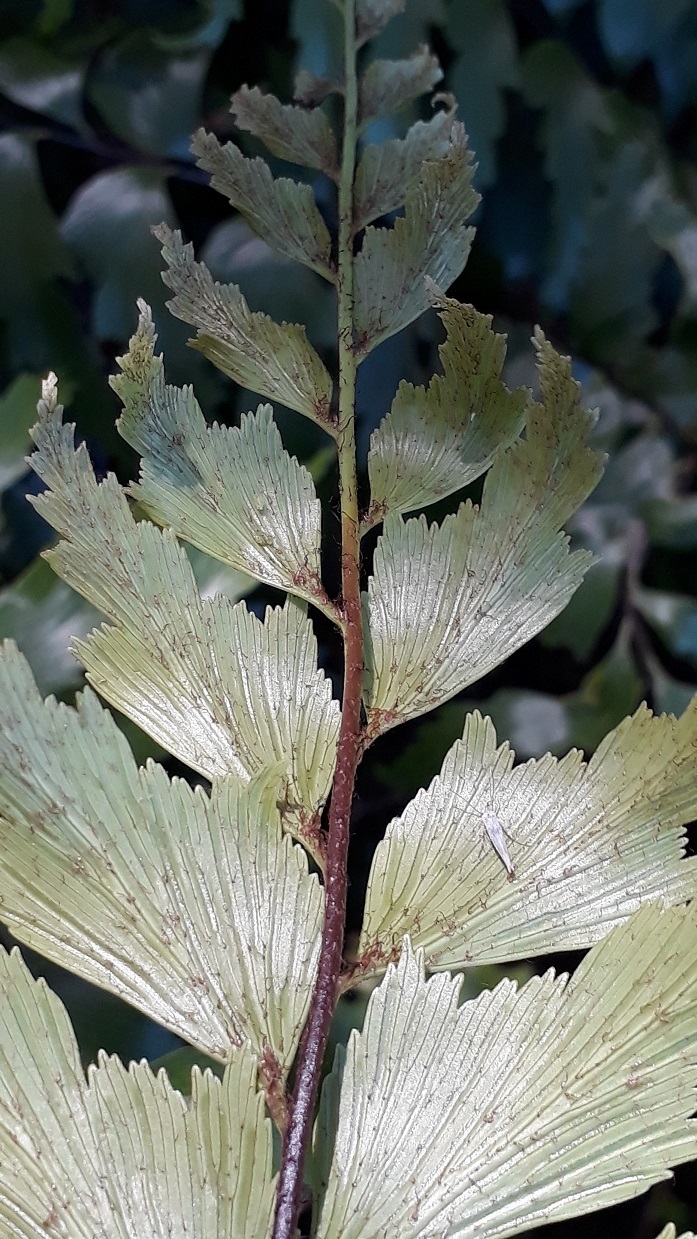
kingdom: Plantae
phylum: Tracheophyta
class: Polypodiopsida
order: Polypodiales
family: Aspleniaceae
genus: Asplenium
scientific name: Asplenium polyodon
